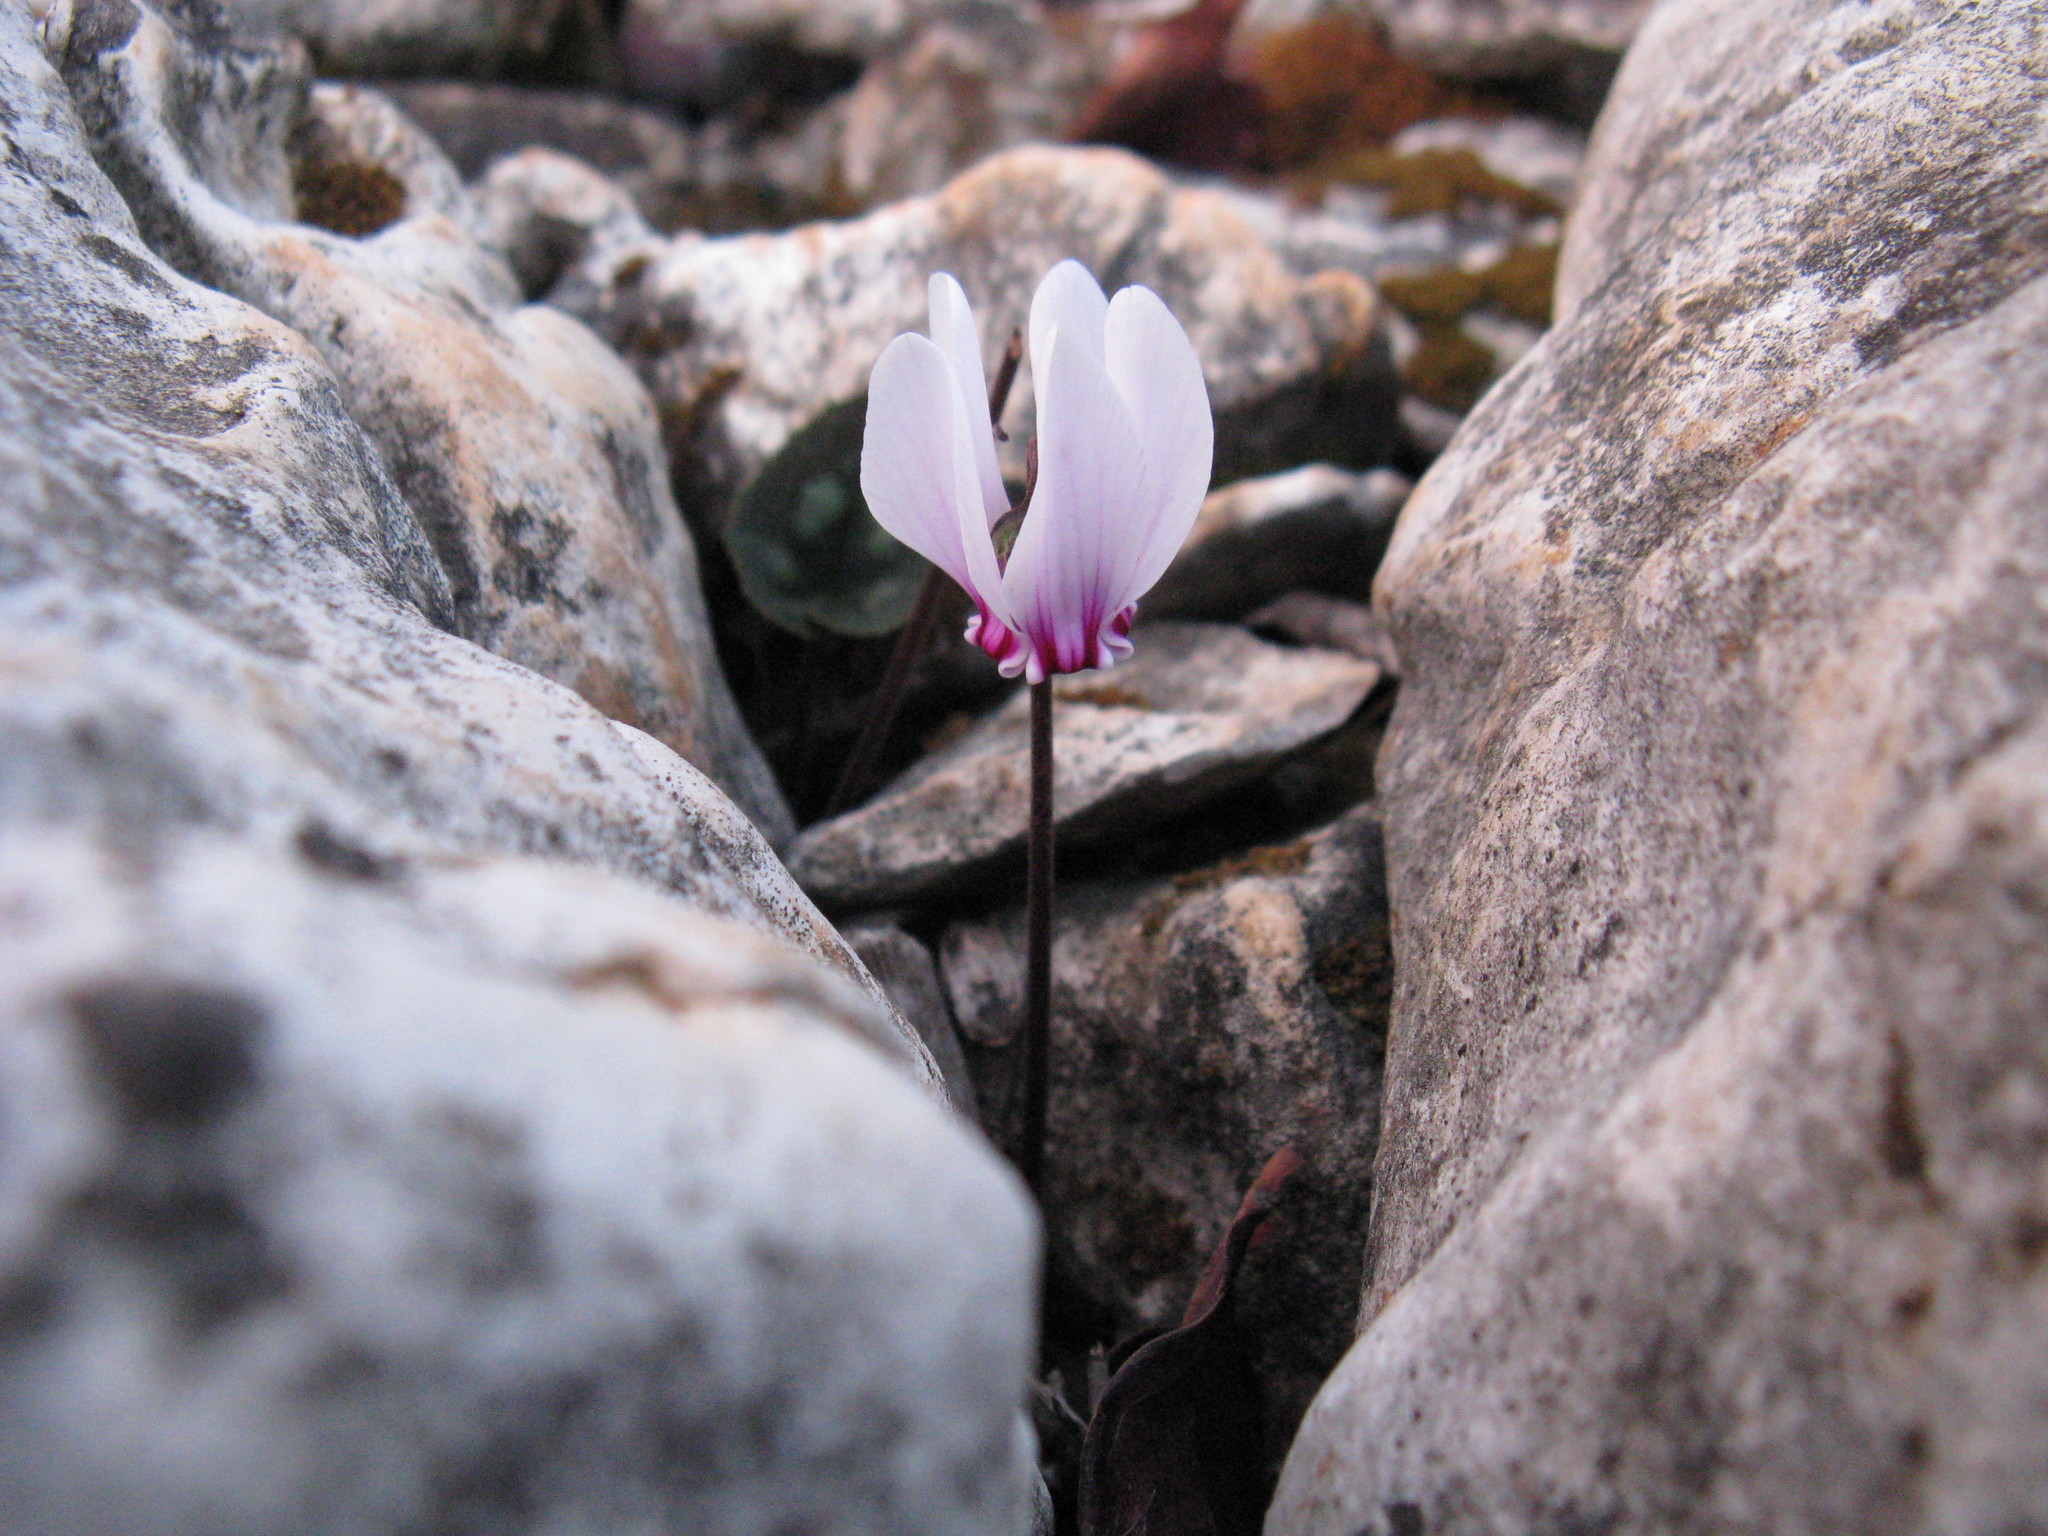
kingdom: Plantae
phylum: Tracheophyta
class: Magnoliopsida
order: Ericales
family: Primulaceae
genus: Cyclamen
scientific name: Cyclamen graecum
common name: Greek cyclamen
